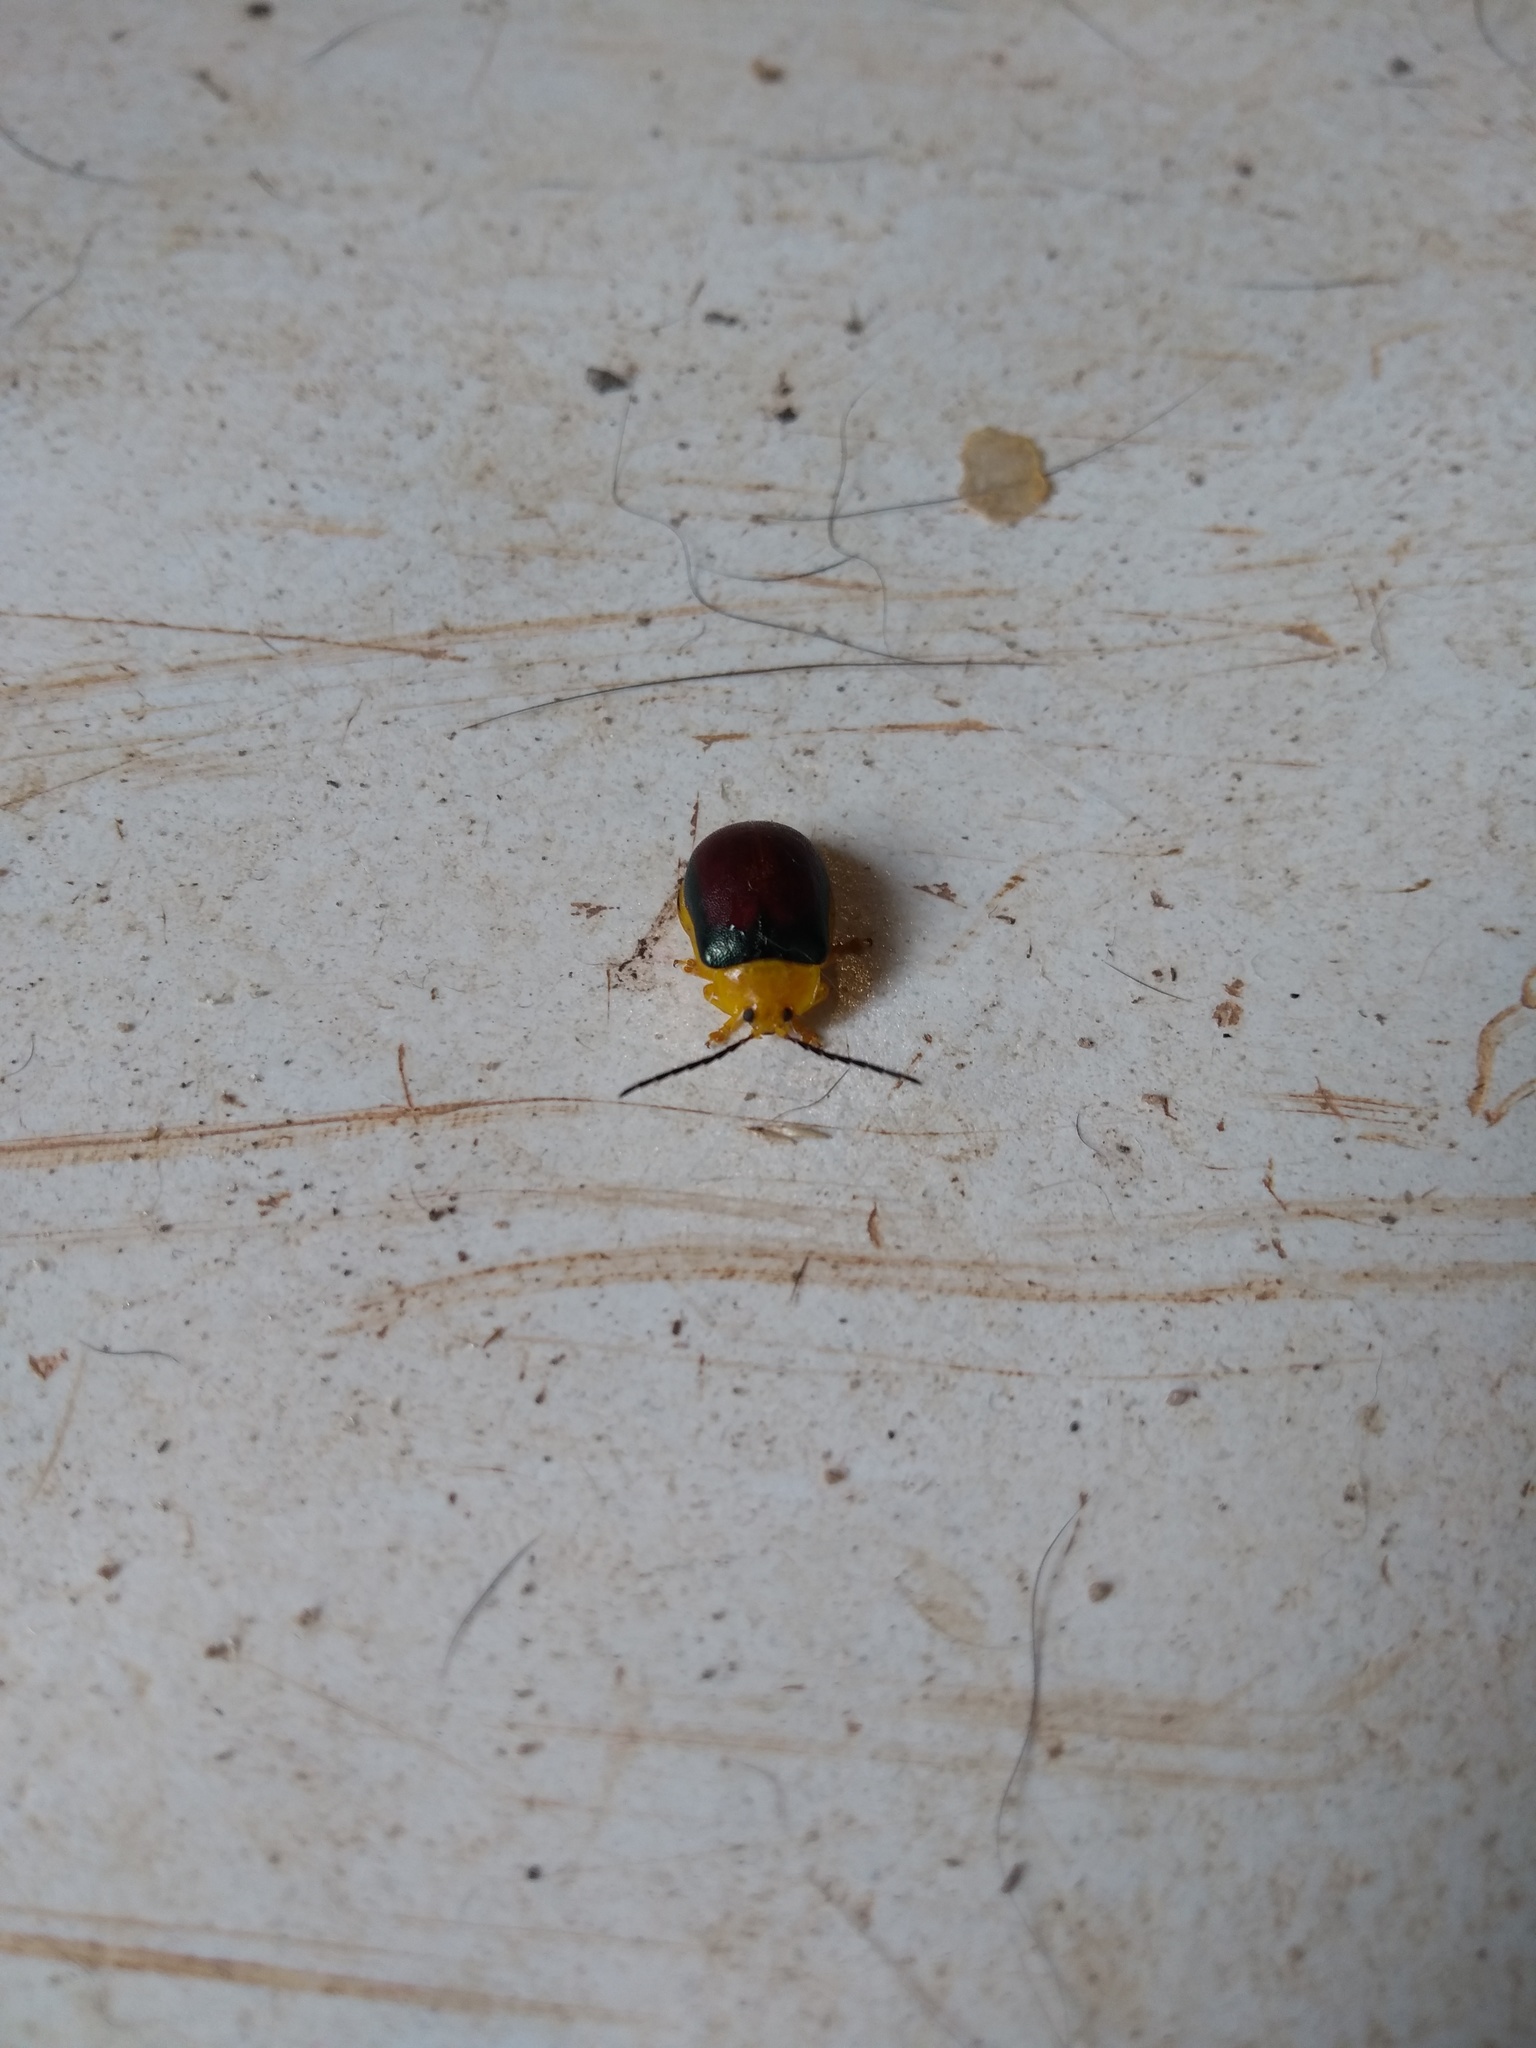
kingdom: Animalia
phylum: Arthropoda
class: Insecta
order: Coleoptera
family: Chrysomelidae
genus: Paranaita
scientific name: Paranaita
